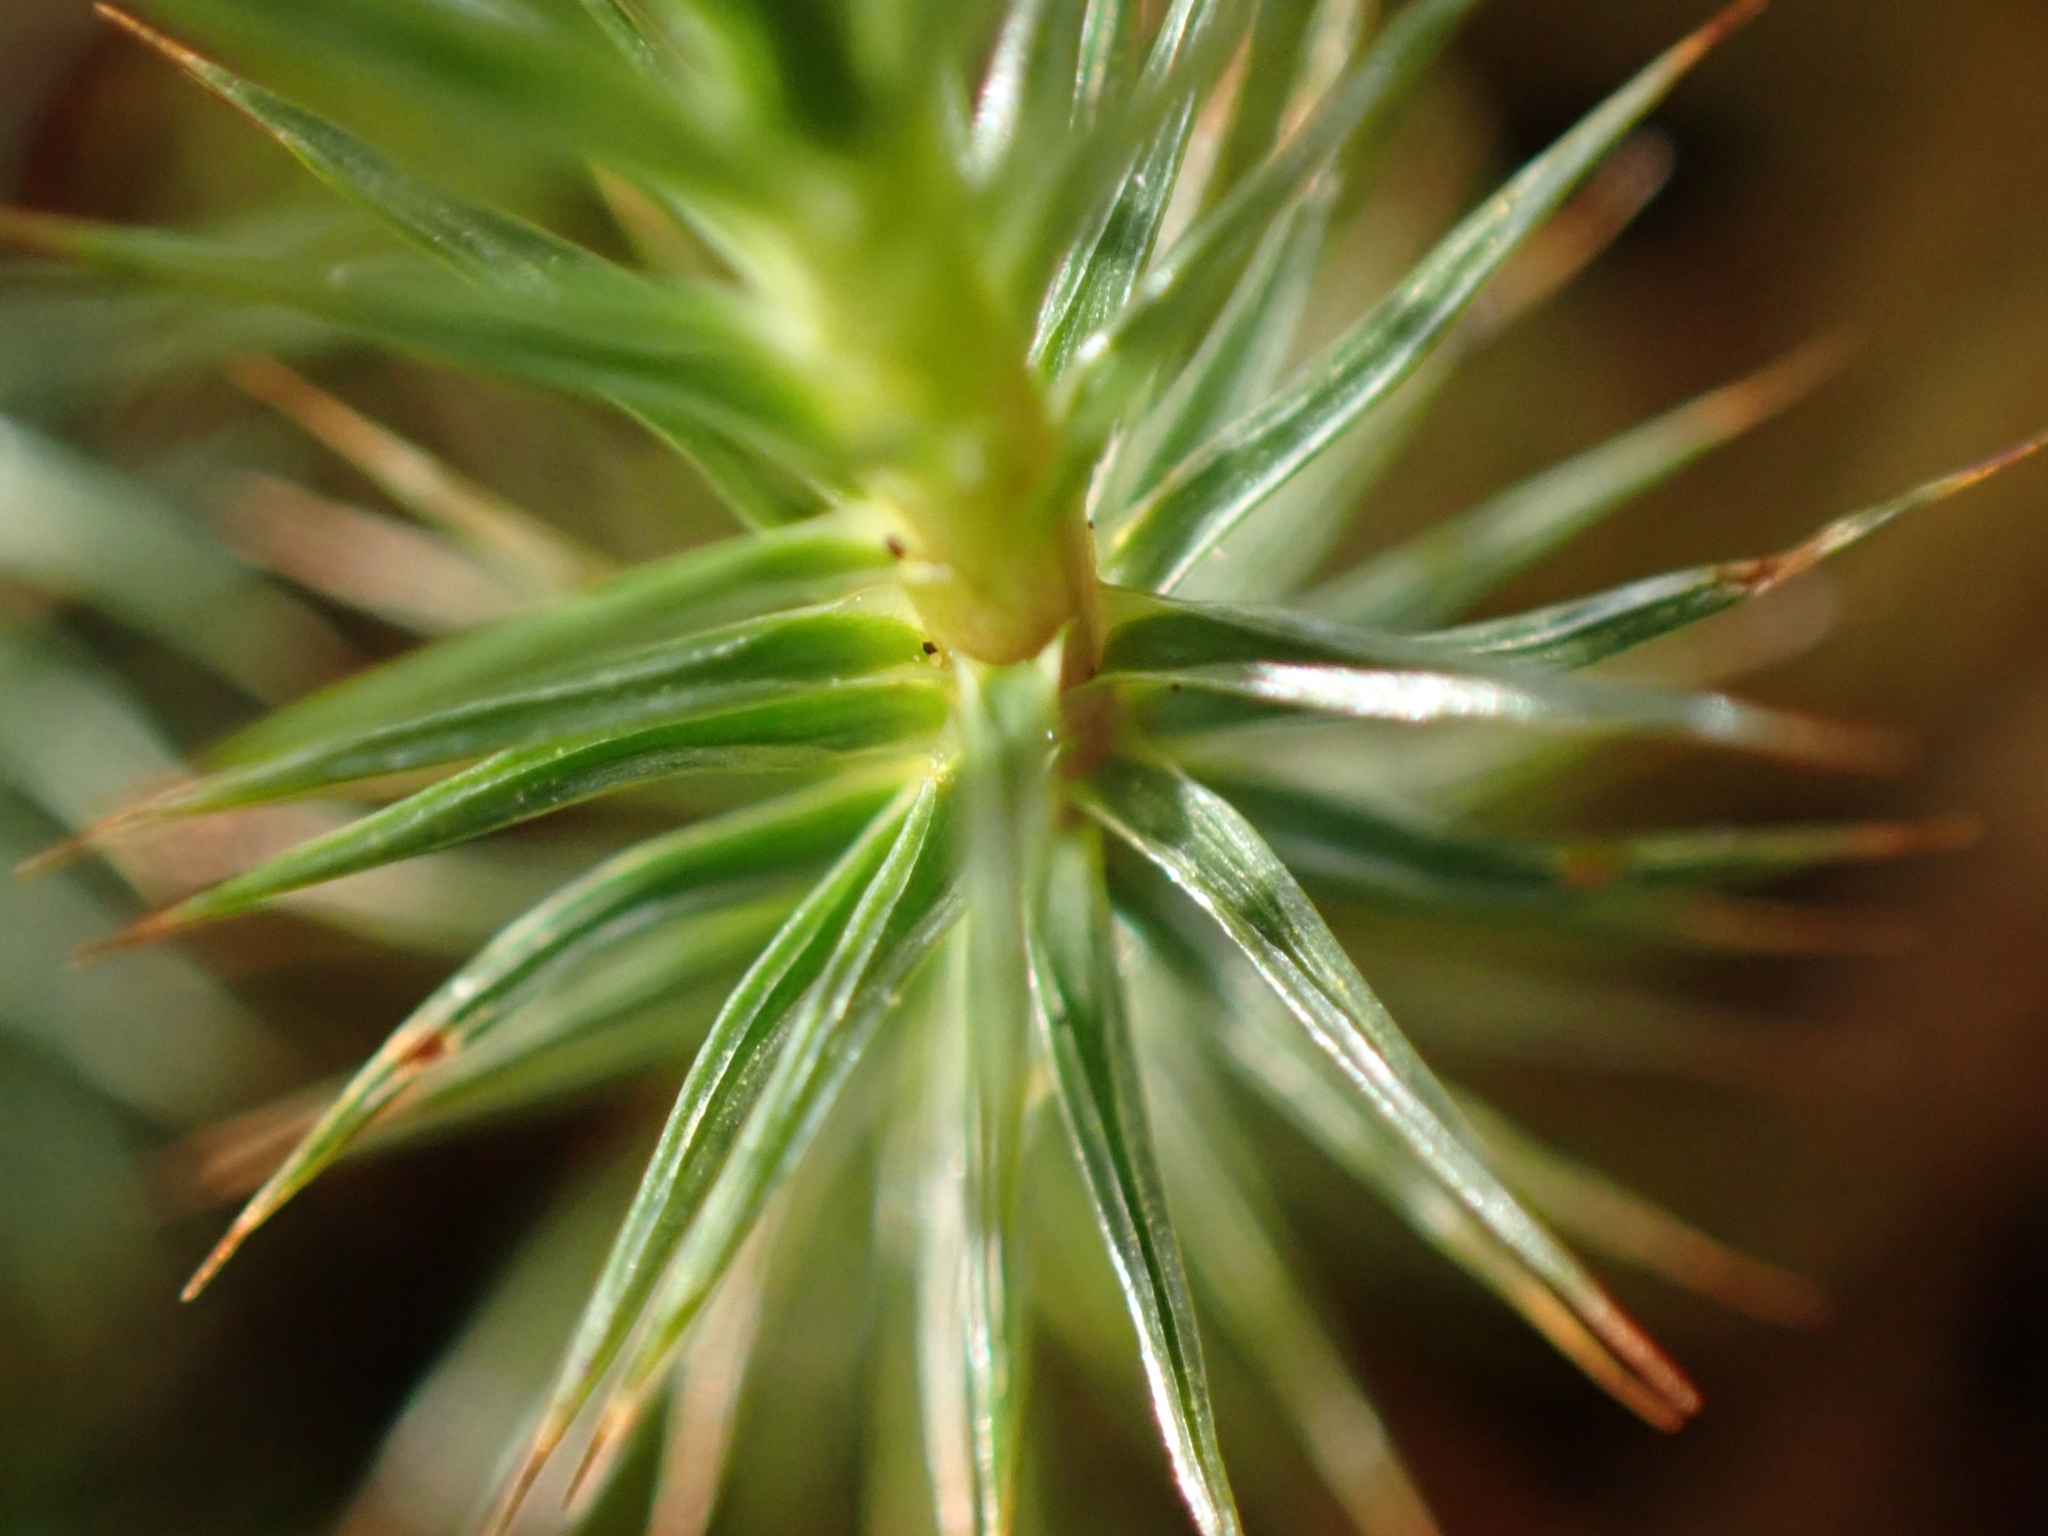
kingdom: Plantae
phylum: Bryophyta
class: Polytrichopsida
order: Polytrichales
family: Polytrichaceae
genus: Polytrichum
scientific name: Polytrichum juniperinum
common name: Juniper haircap moss
